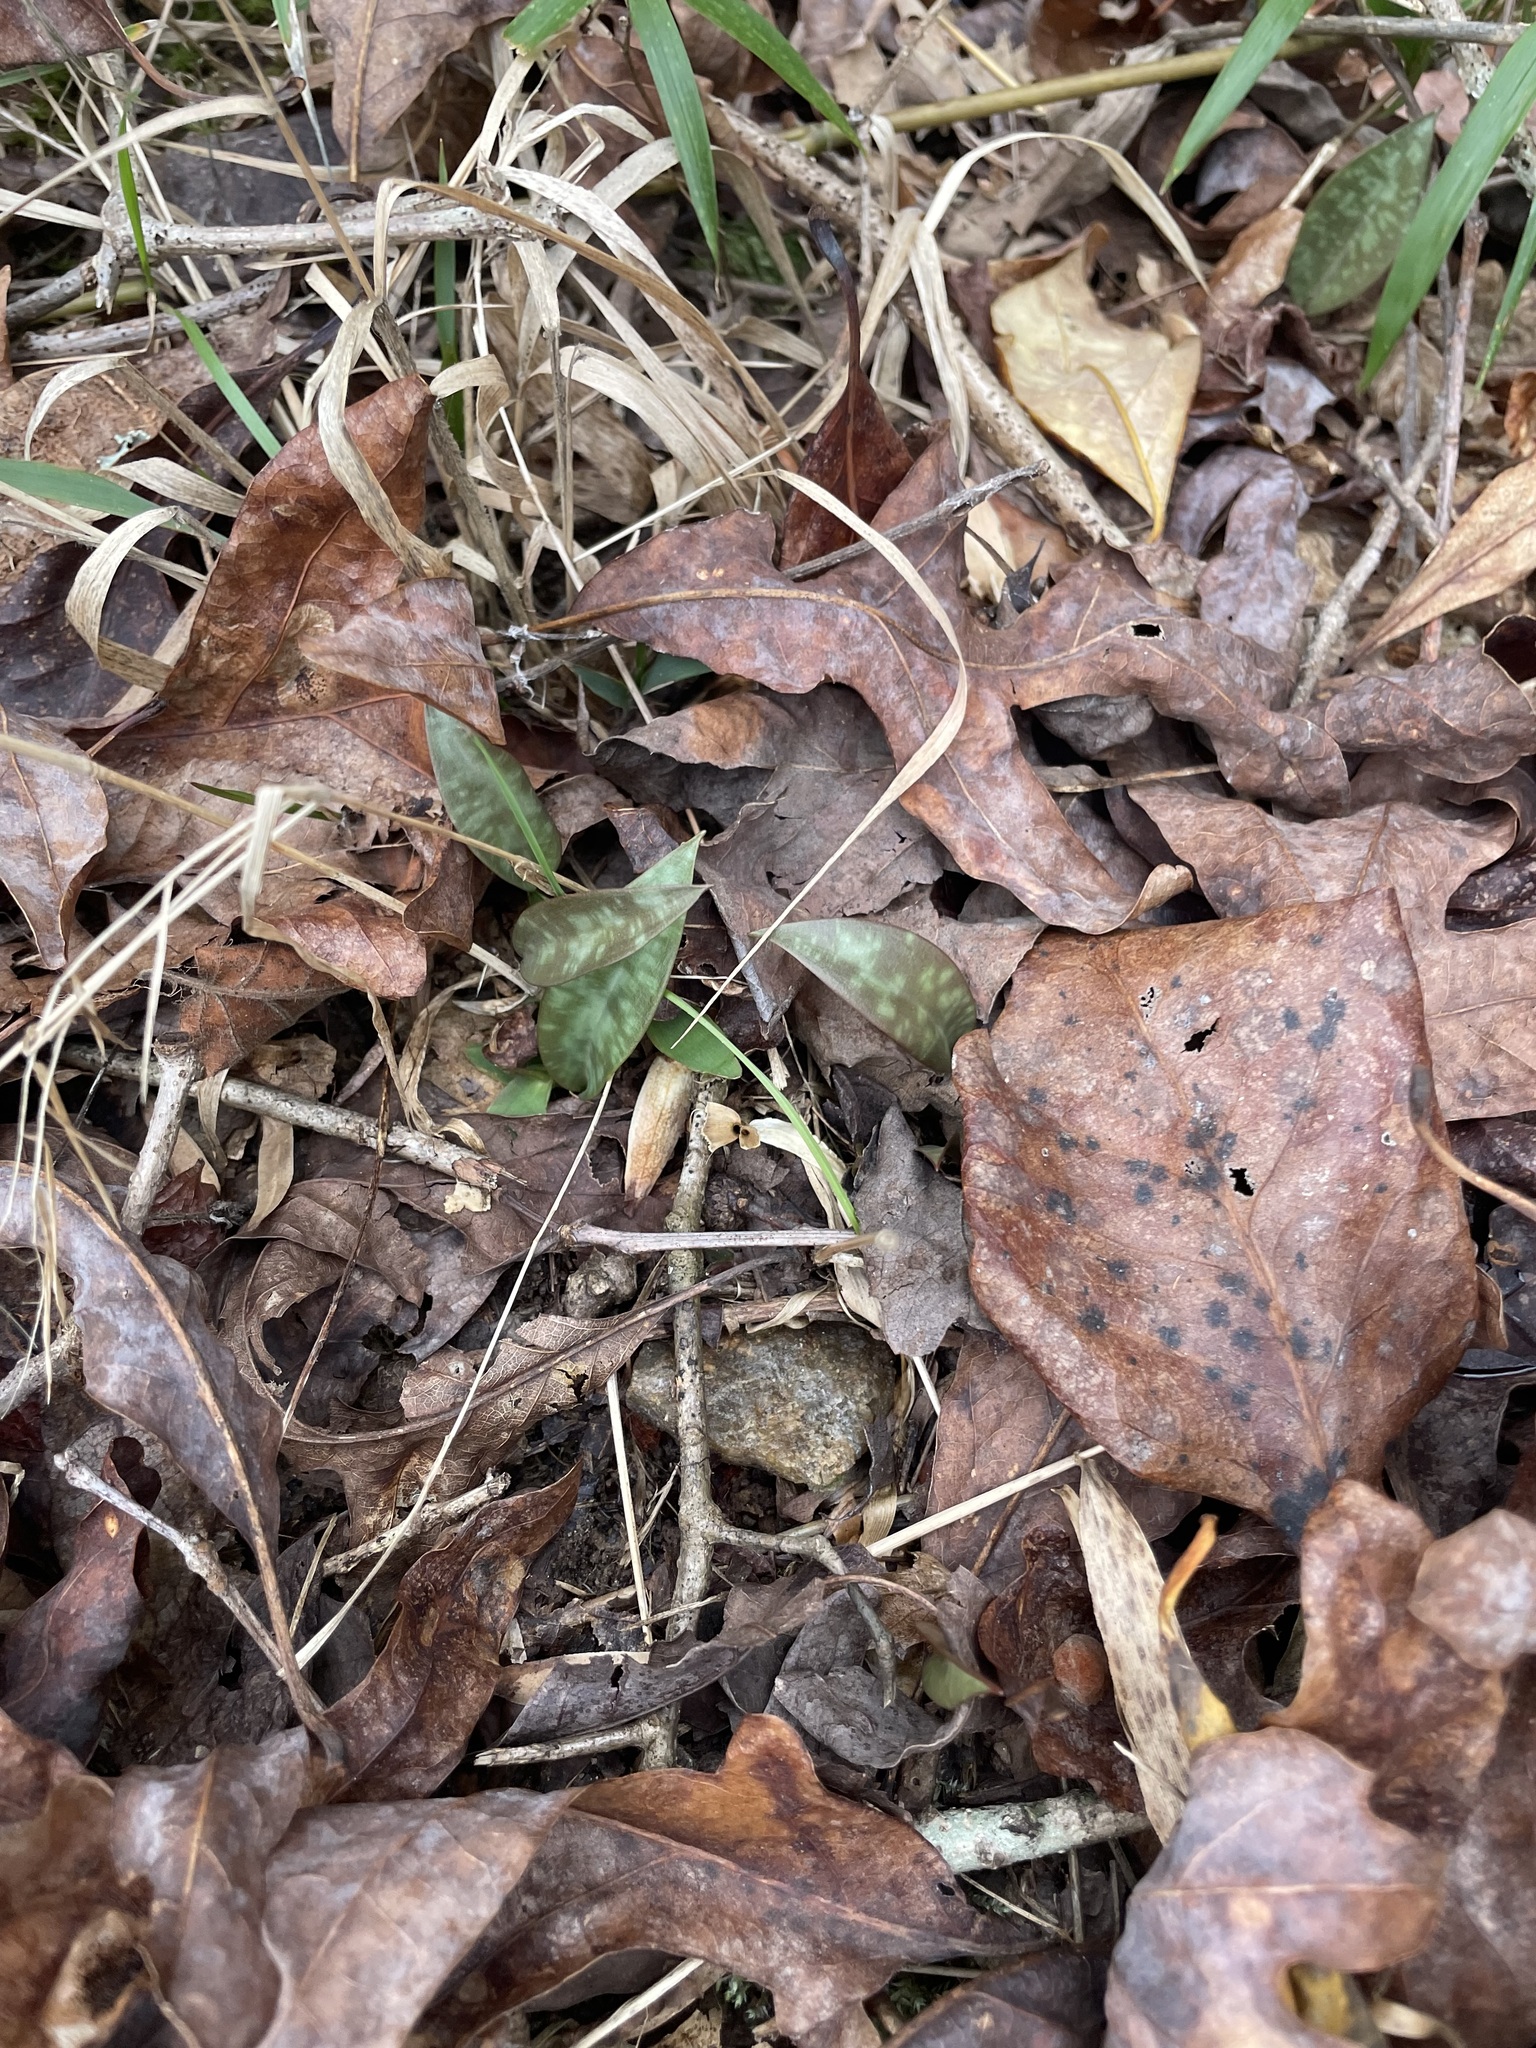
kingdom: Plantae
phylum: Tracheophyta
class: Liliopsida
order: Liliales
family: Liliaceae
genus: Erythronium
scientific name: Erythronium umbilicatum
